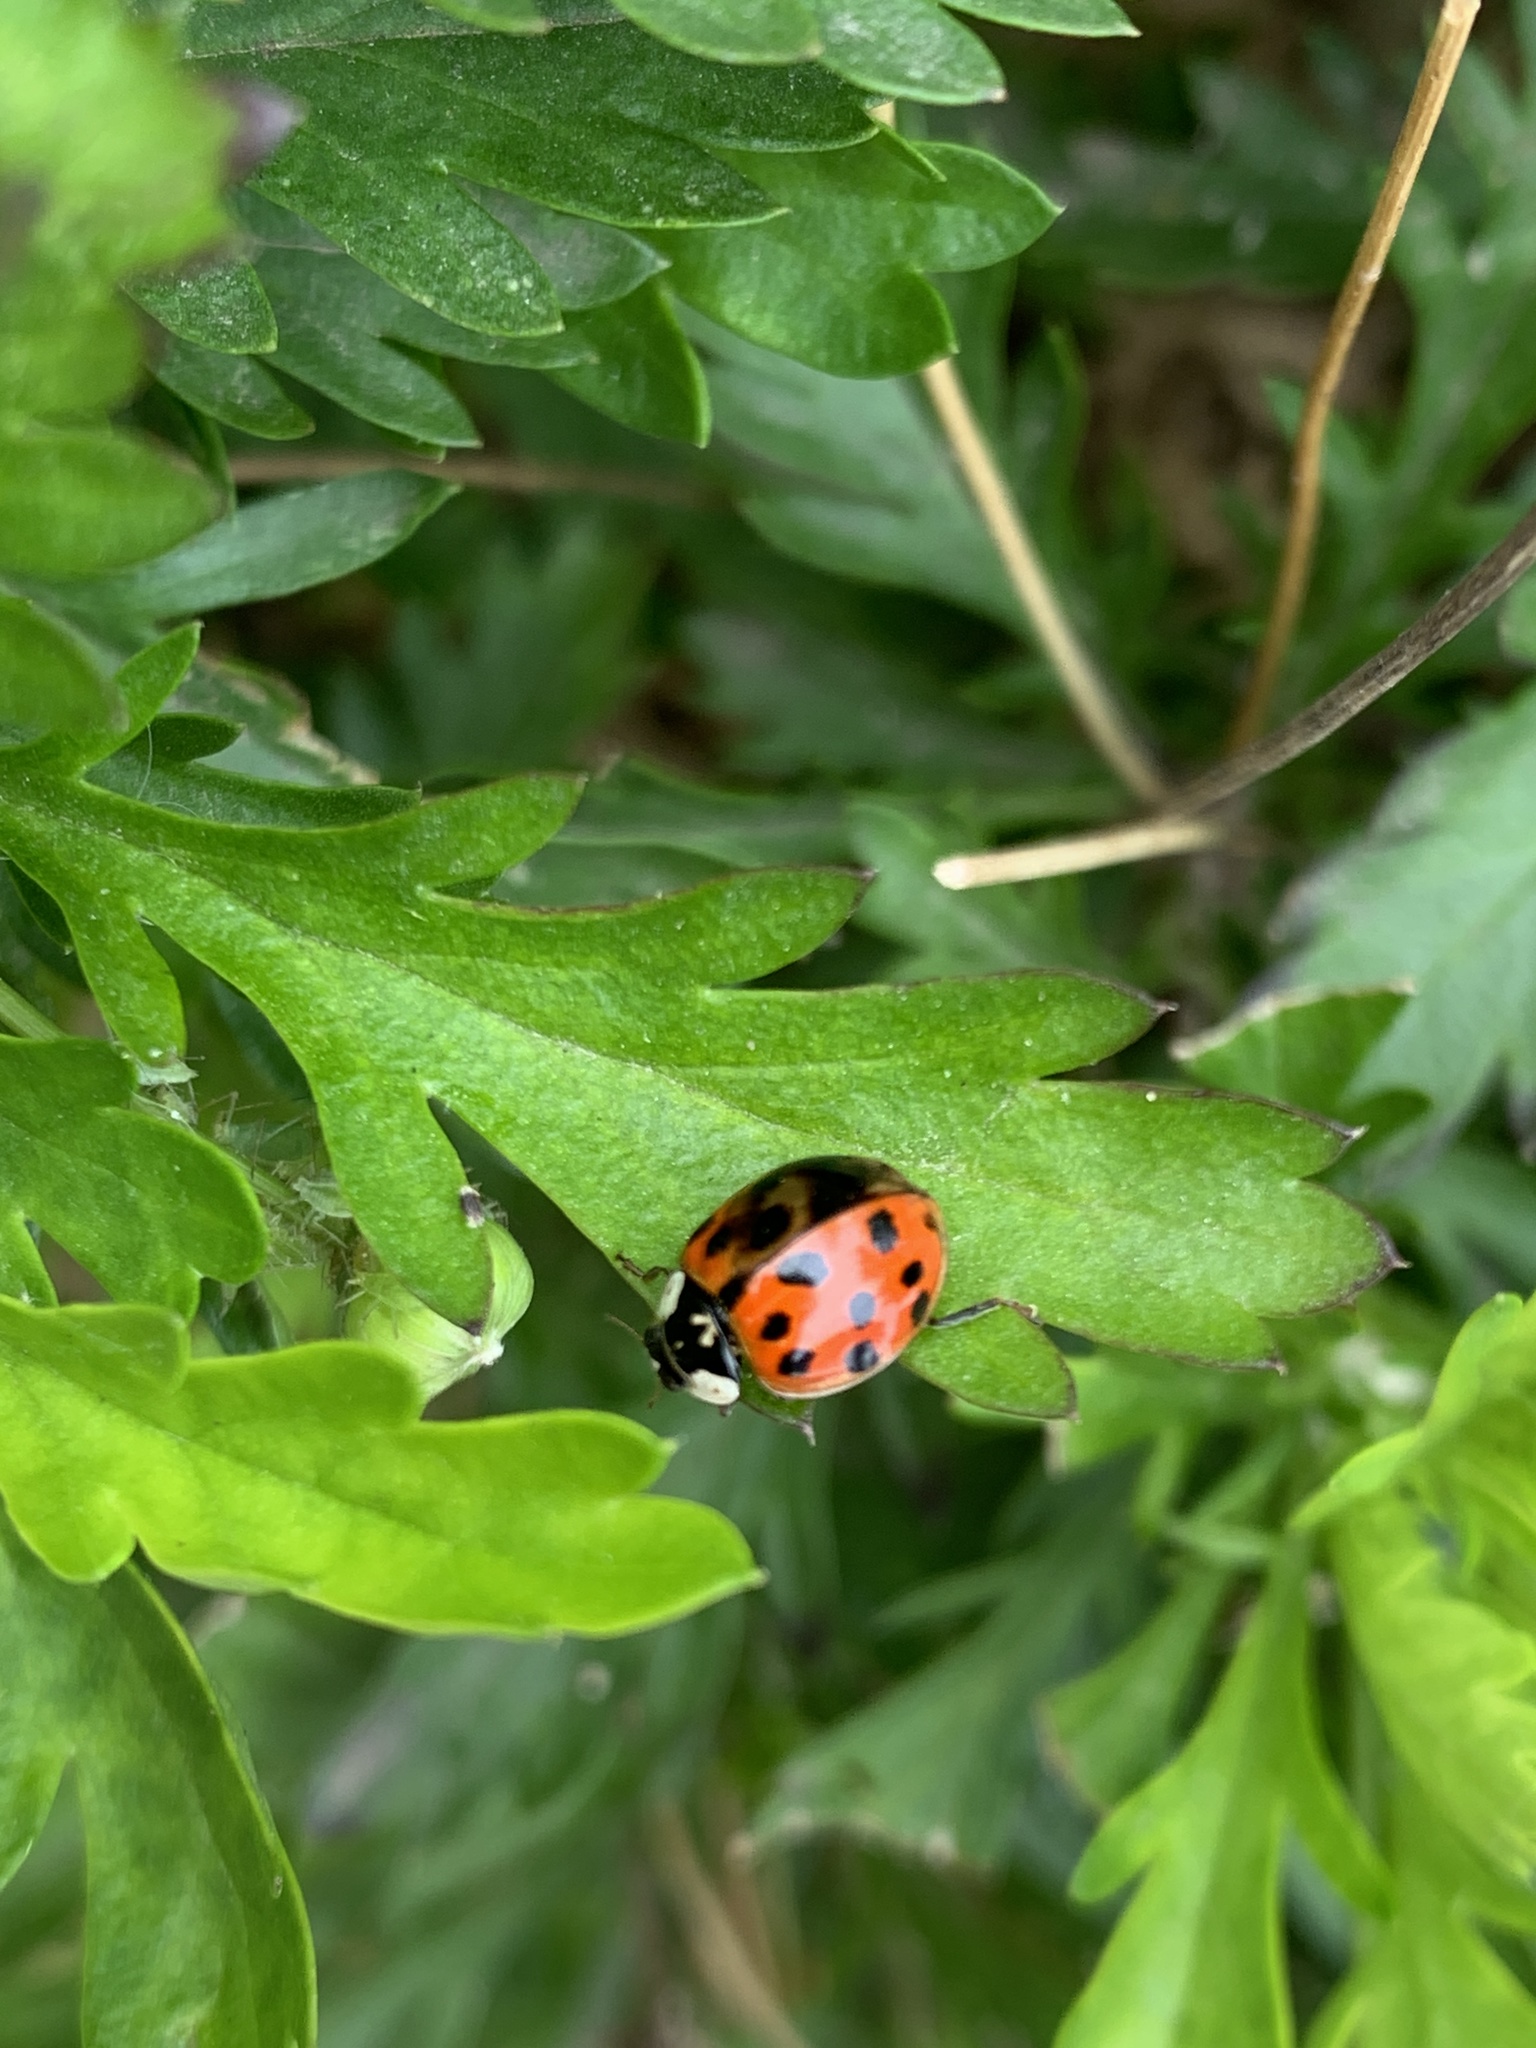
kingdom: Animalia
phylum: Arthropoda
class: Insecta
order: Coleoptera
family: Coccinellidae
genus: Harmonia
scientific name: Harmonia axyridis
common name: Harlequin ladybird
